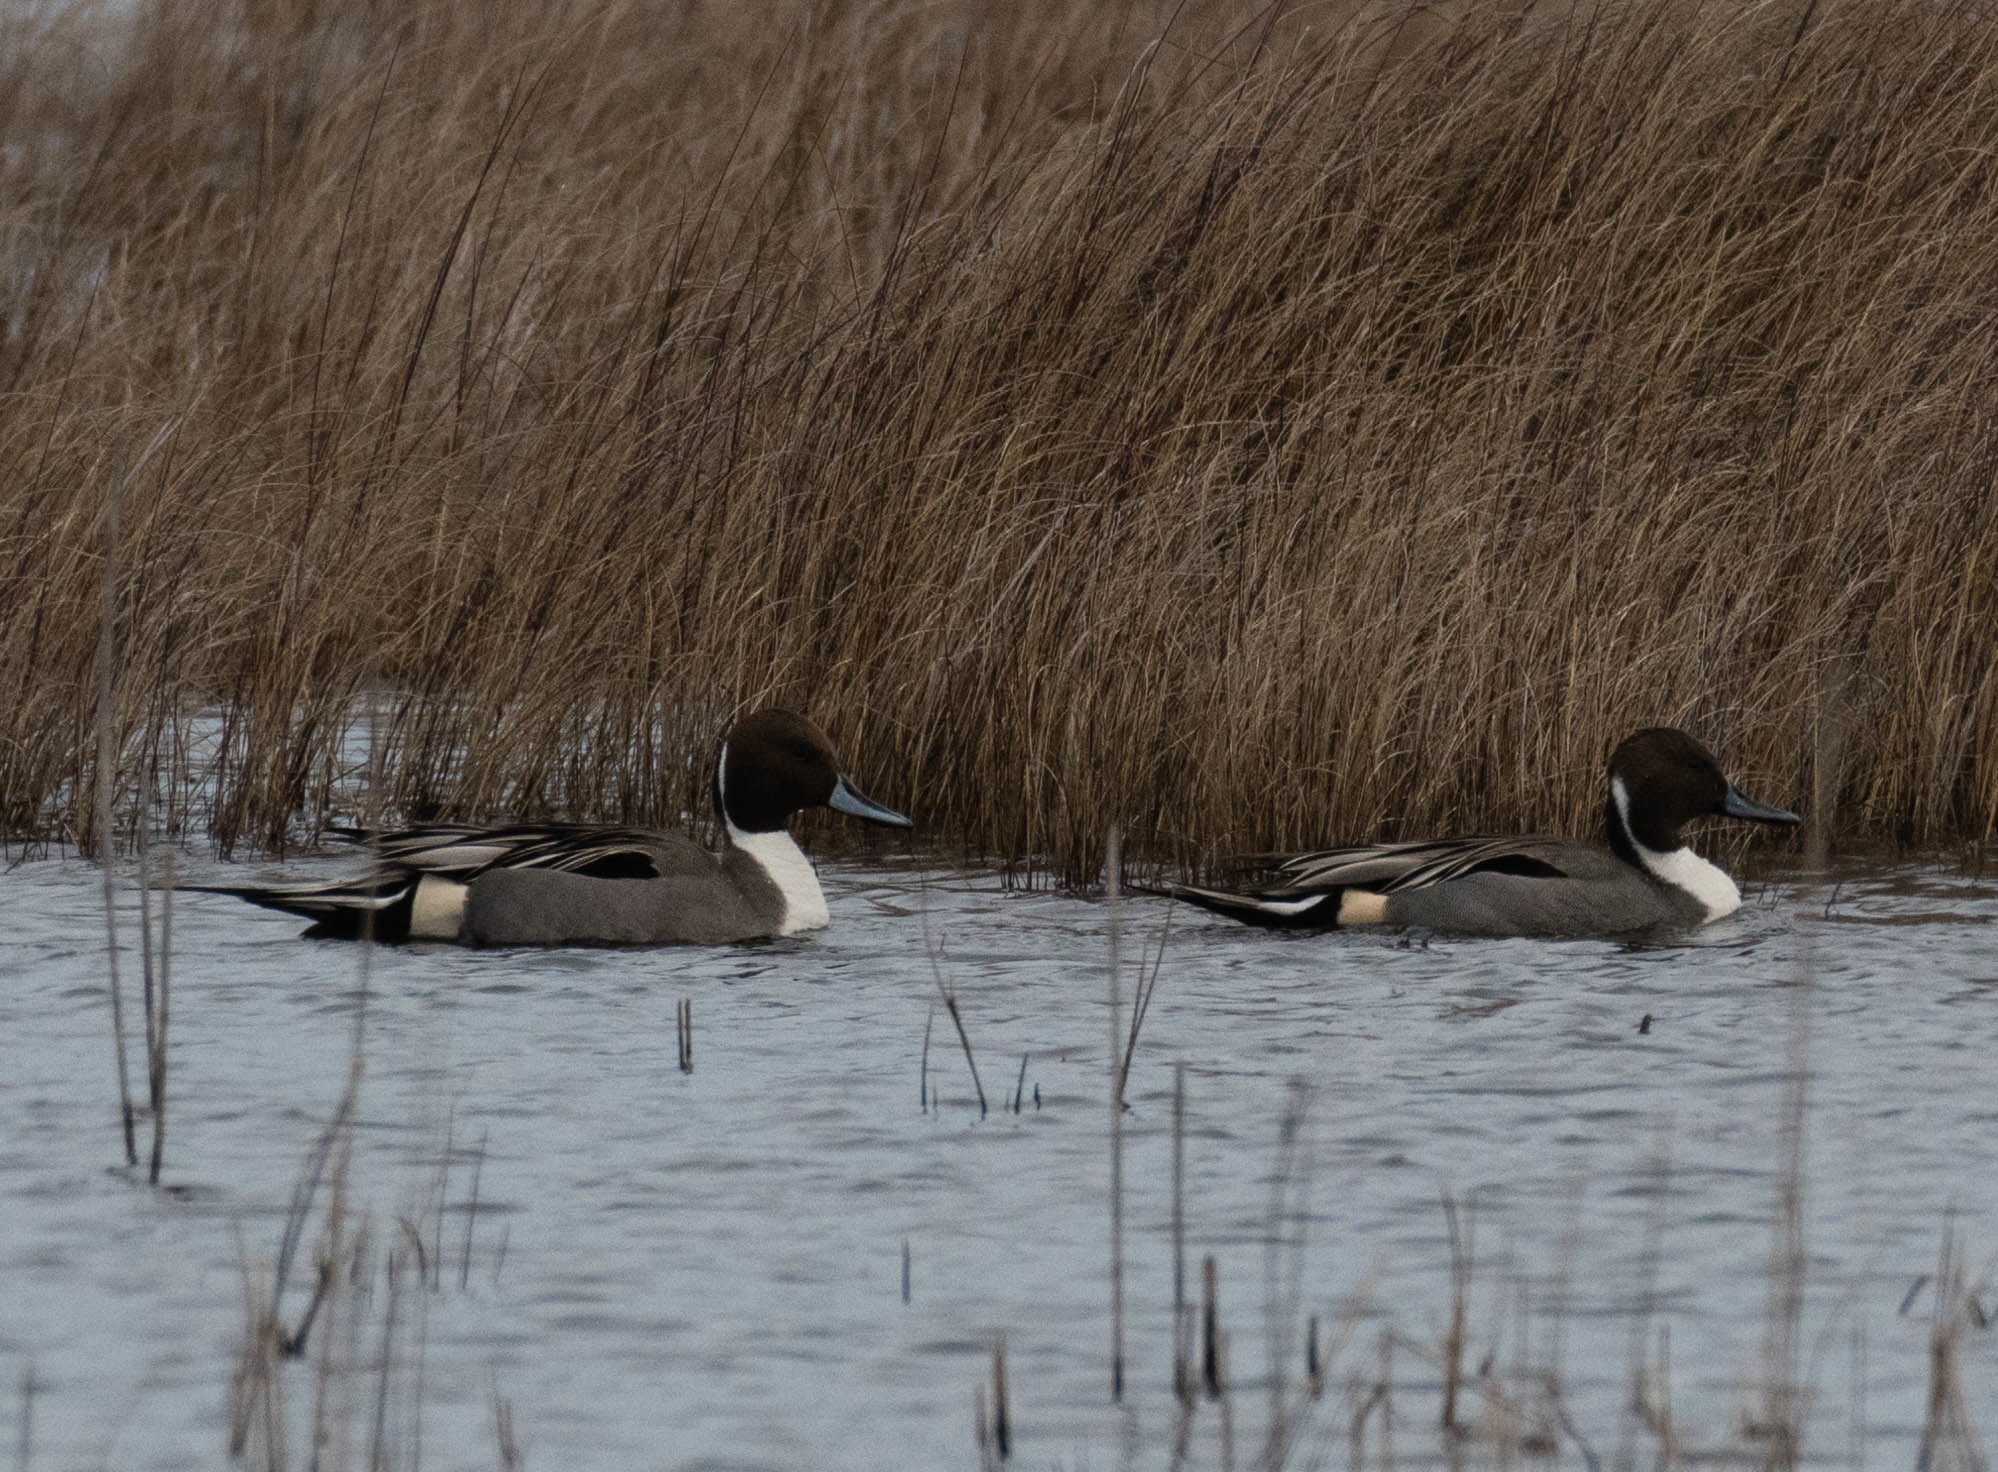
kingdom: Animalia
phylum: Chordata
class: Aves
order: Anseriformes
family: Anatidae
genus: Anas
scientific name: Anas acuta
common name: Northern pintail
